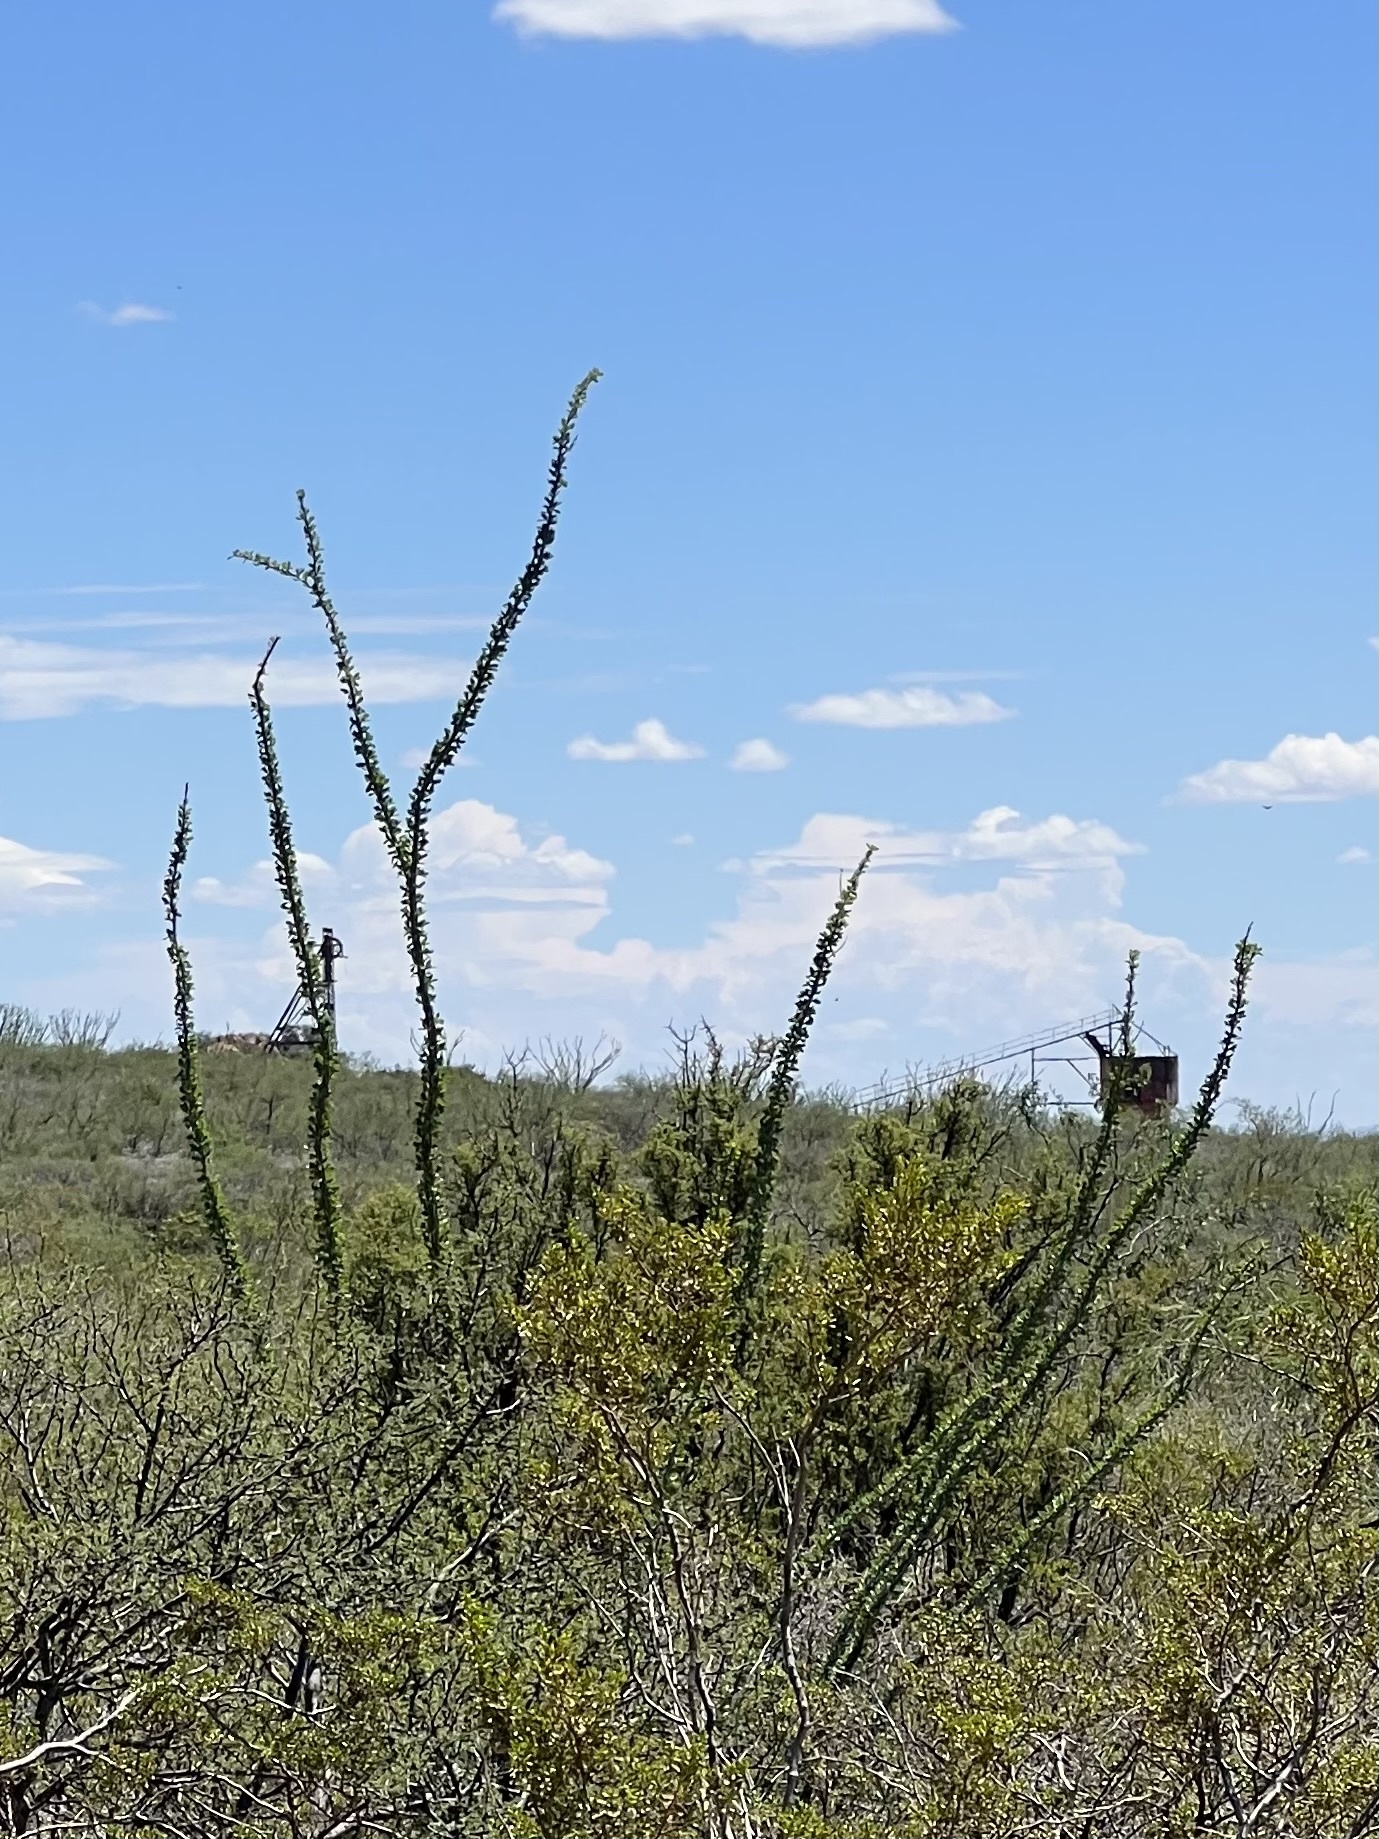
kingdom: Plantae
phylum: Tracheophyta
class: Magnoliopsida
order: Ericales
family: Fouquieriaceae
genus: Fouquieria
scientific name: Fouquieria splendens
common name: Vine-cactus
